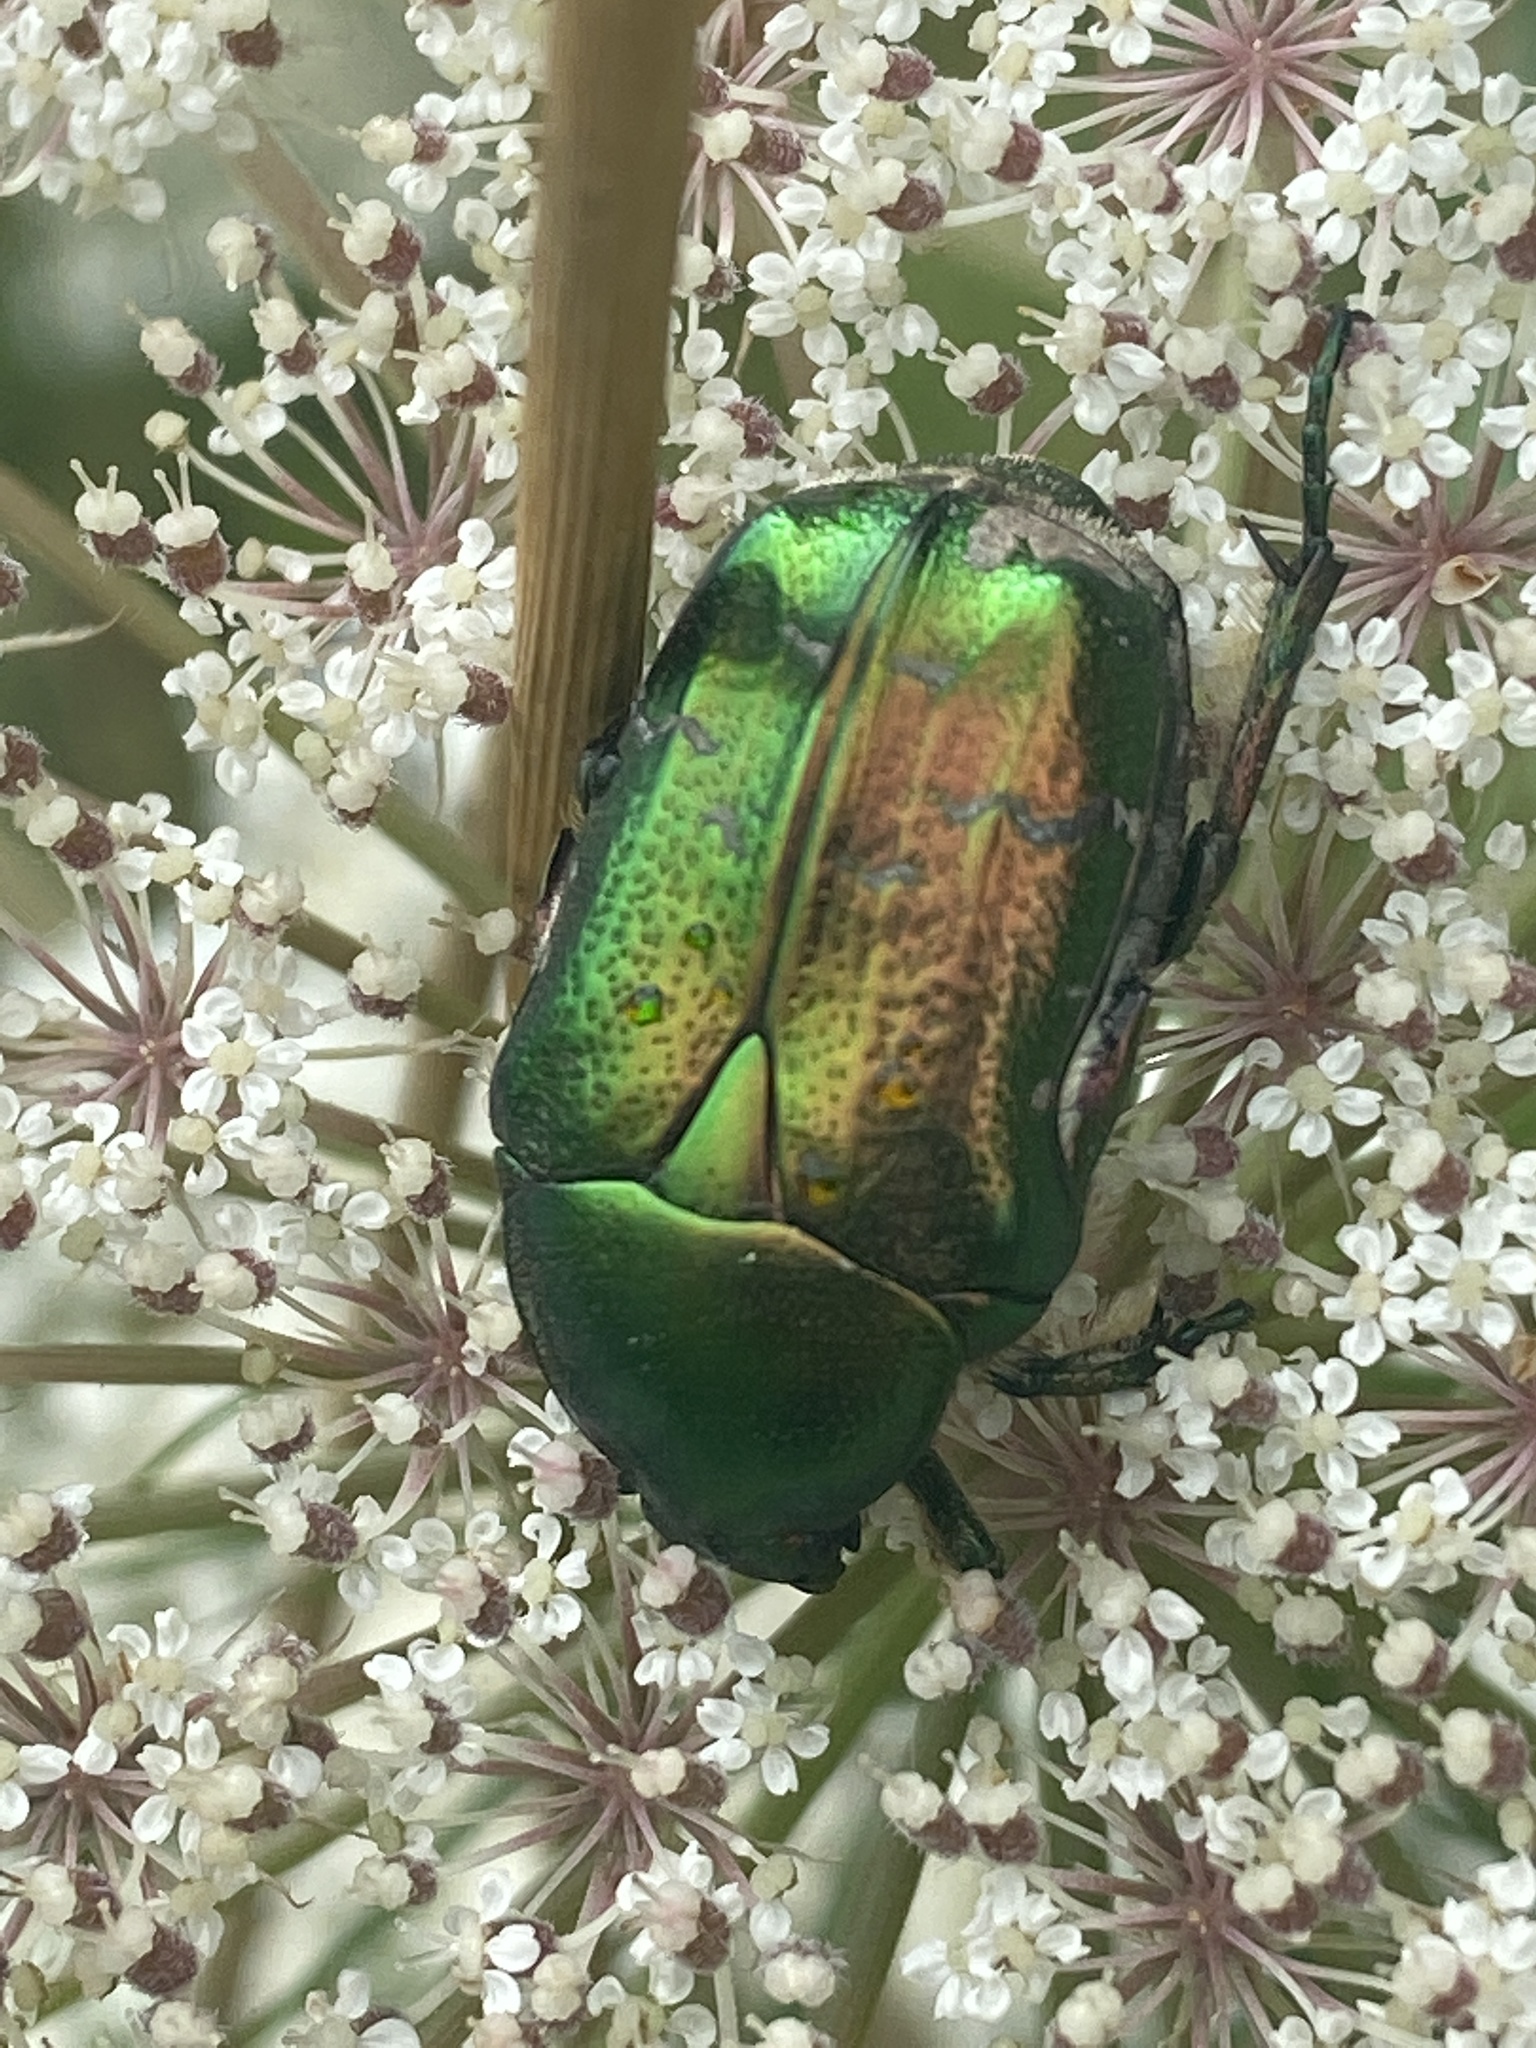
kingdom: Animalia
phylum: Arthropoda
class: Insecta
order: Coleoptera
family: Scarabaeidae
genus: Cetonia
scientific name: Cetonia aurata
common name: Rose chafer
